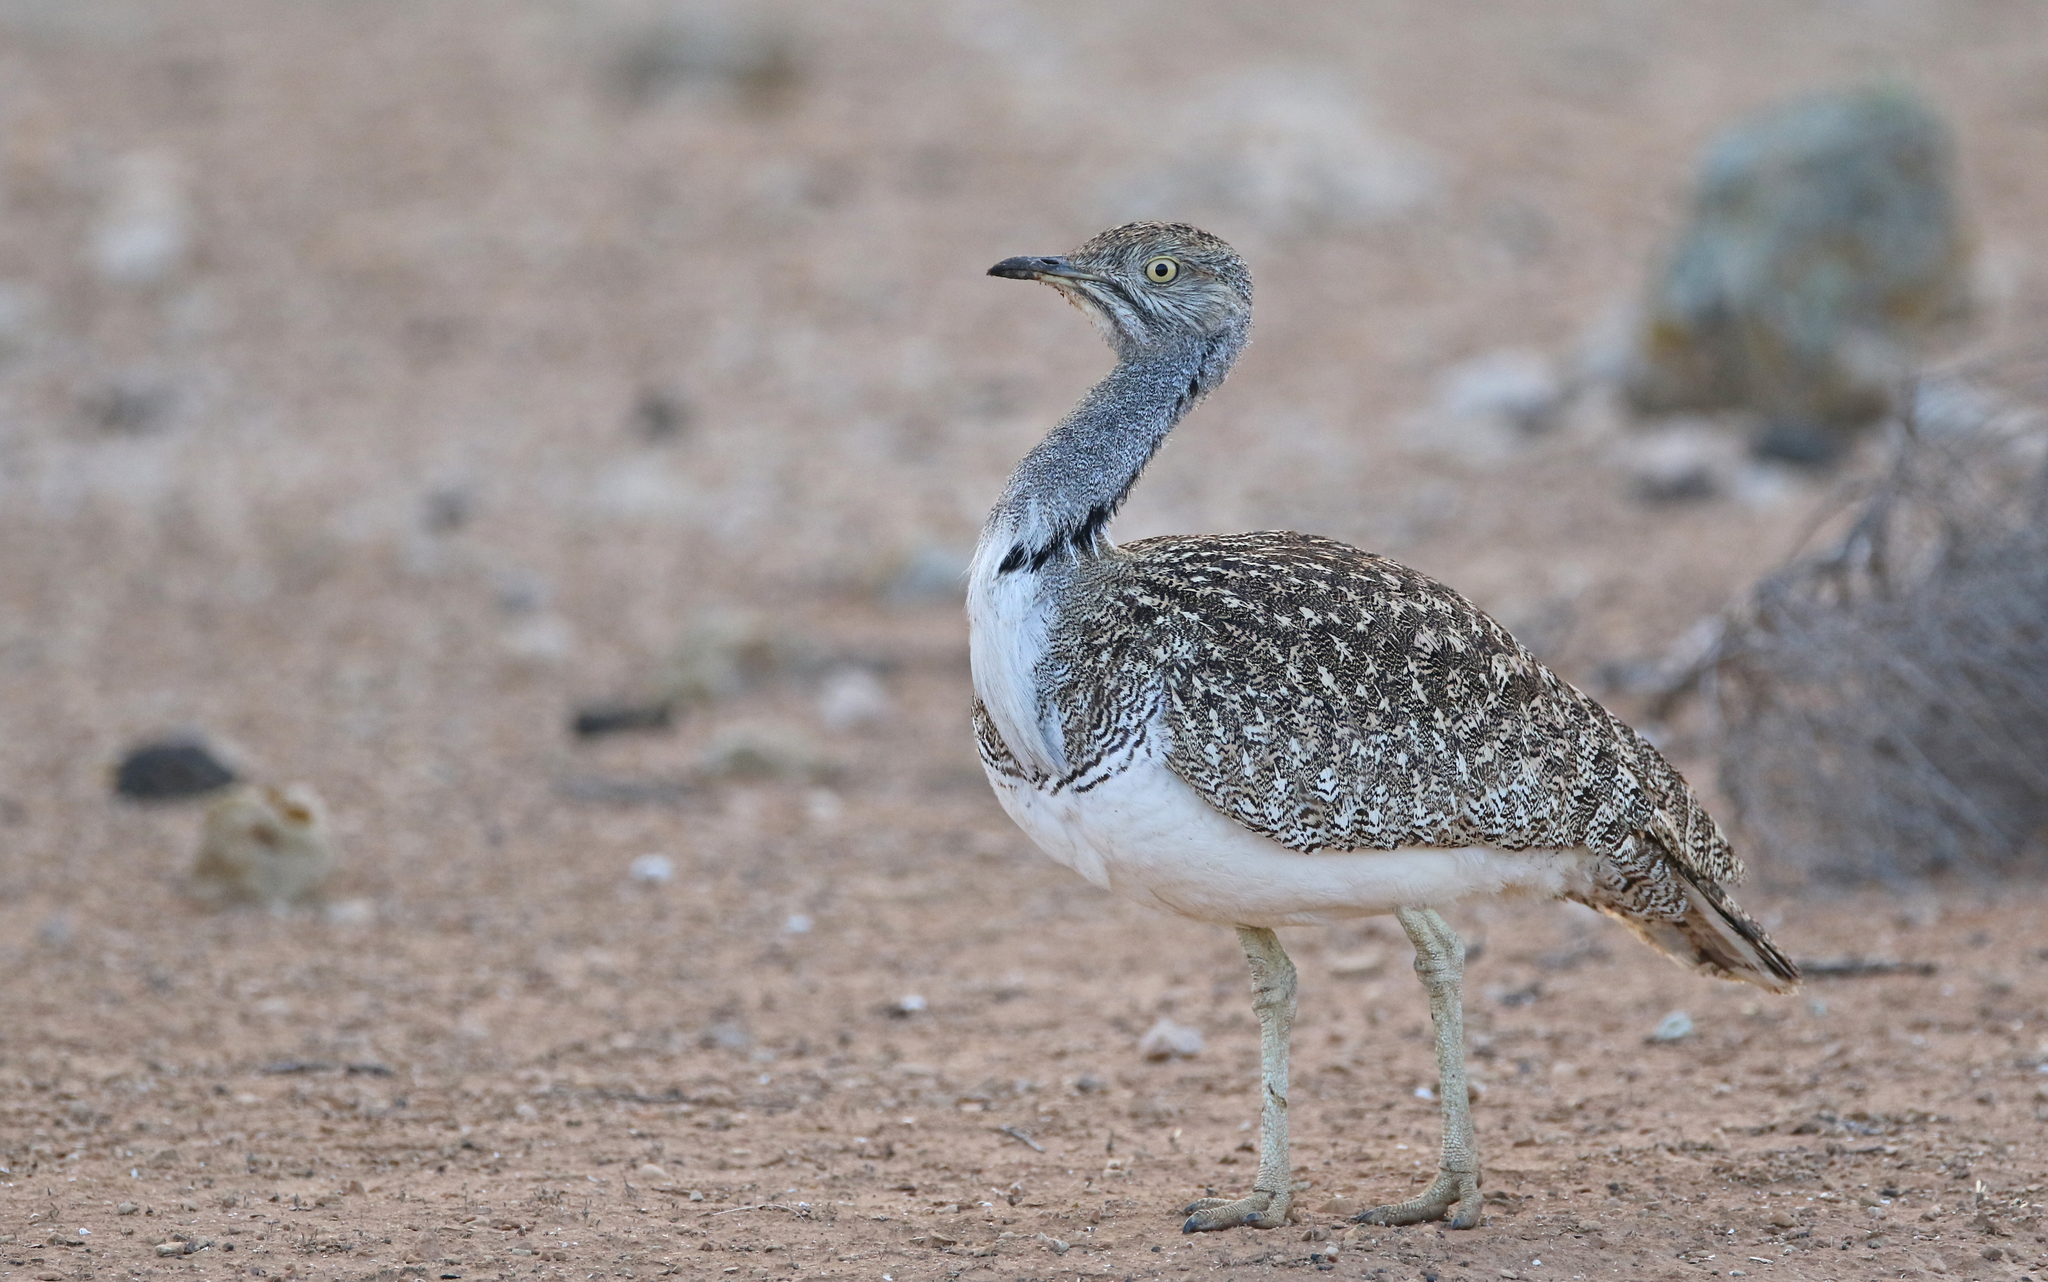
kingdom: Animalia
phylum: Chordata
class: Aves
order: Otidiformes
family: Otididae
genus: Chlamydotis
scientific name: Chlamydotis undulata
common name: Houbara bustard
